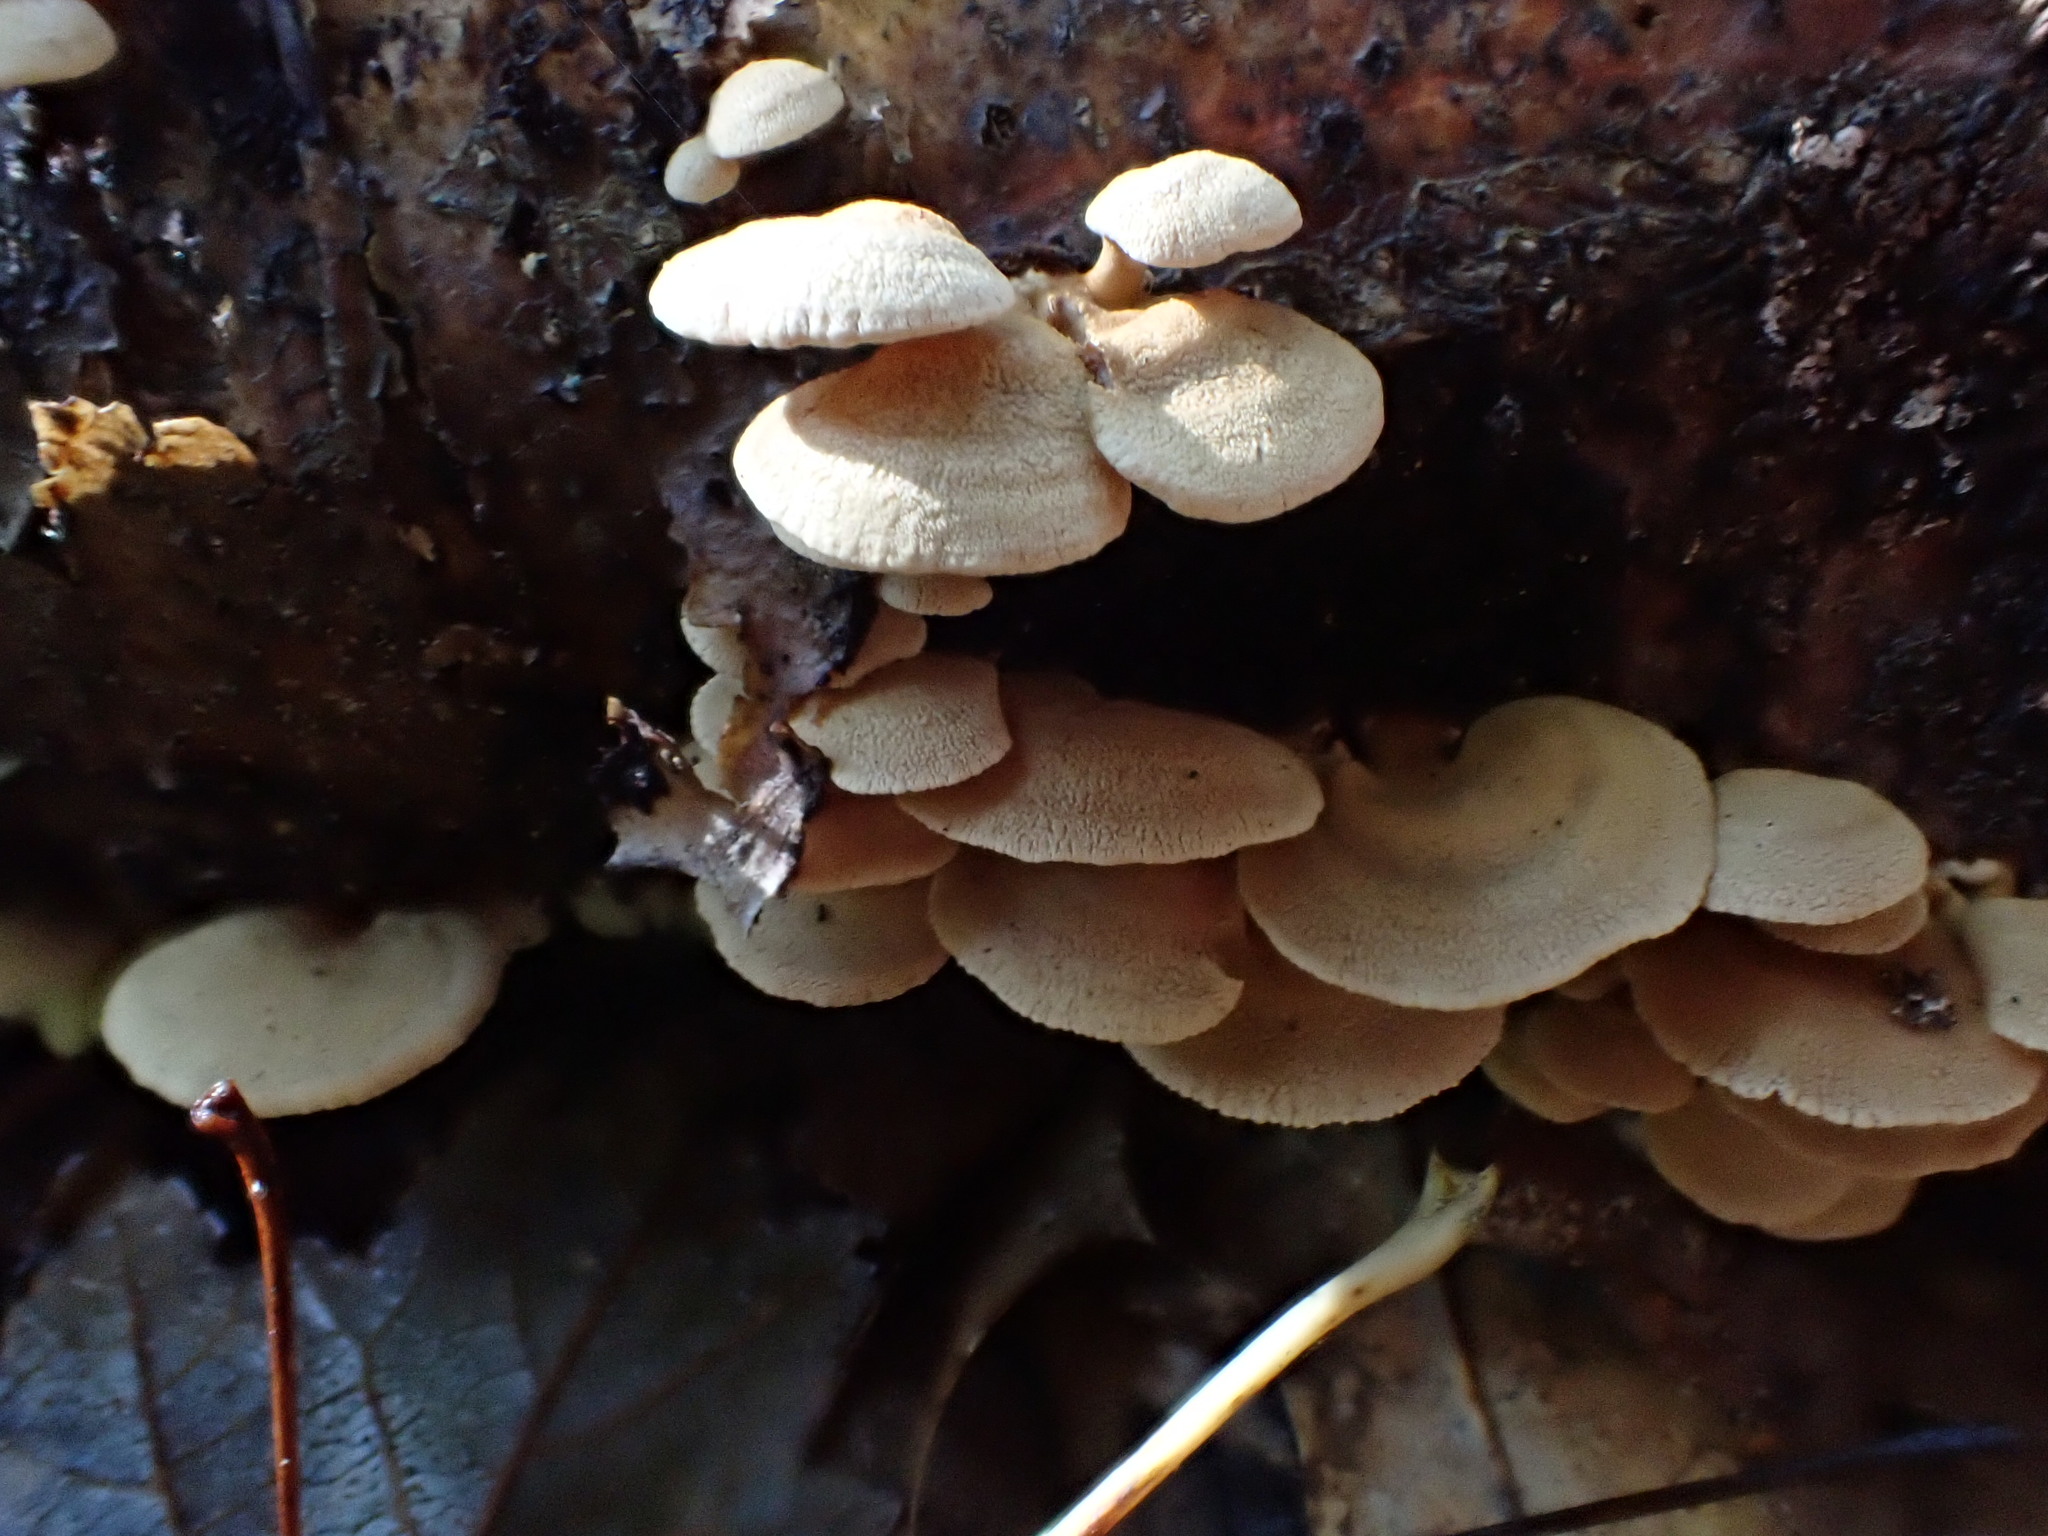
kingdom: Fungi
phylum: Basidiomycota
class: Agaricomycetes
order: Agaricales
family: Mycenaceae
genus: Panellus
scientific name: Panellus stipticus
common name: Bitter oysterling
